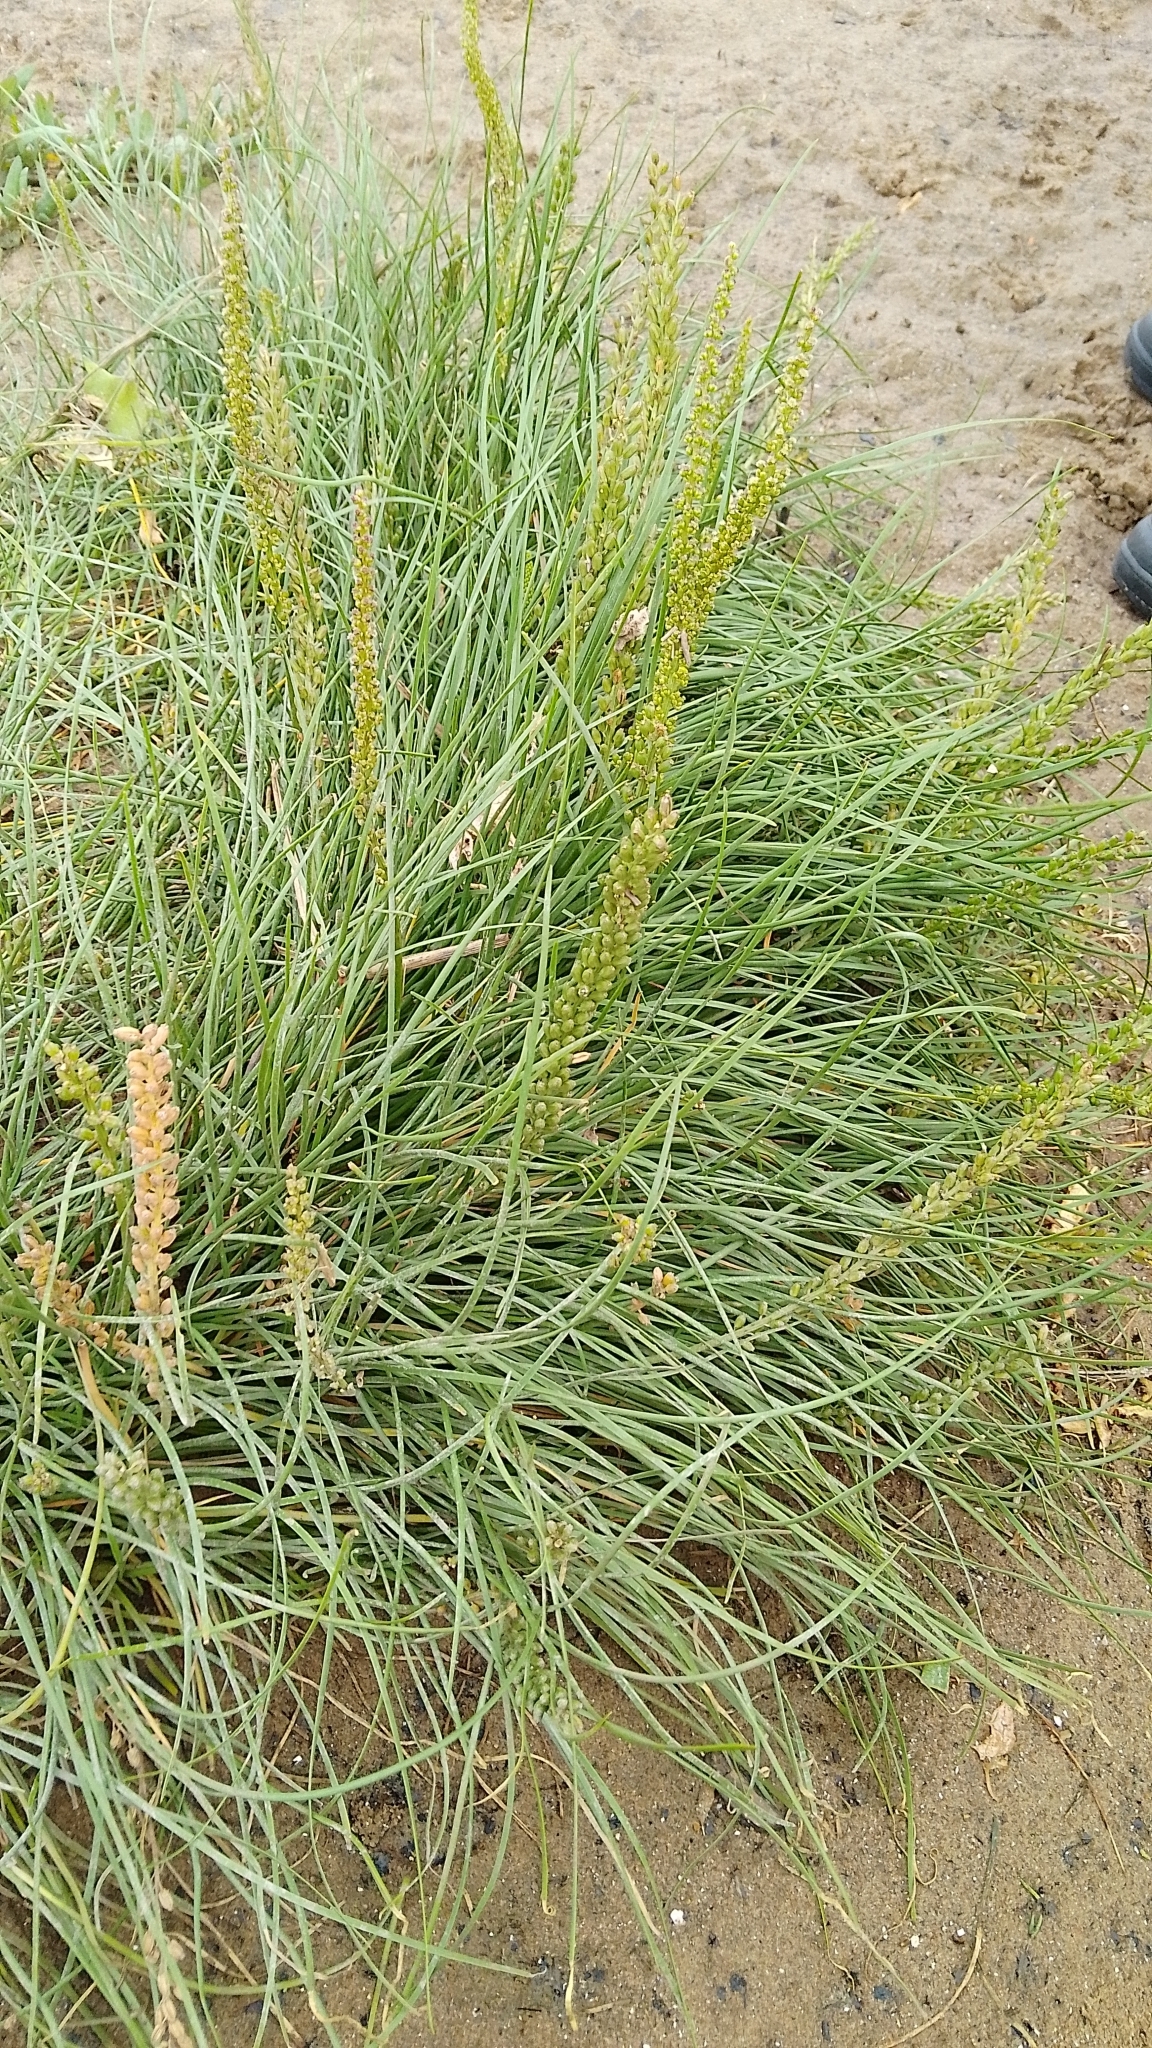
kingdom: Plantae
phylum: Tracheophyta
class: Liliopsida
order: Alismatales
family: Juncaginaceae
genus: Triglochin
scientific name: Triglochin maritima
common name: Sea arrowgrass
